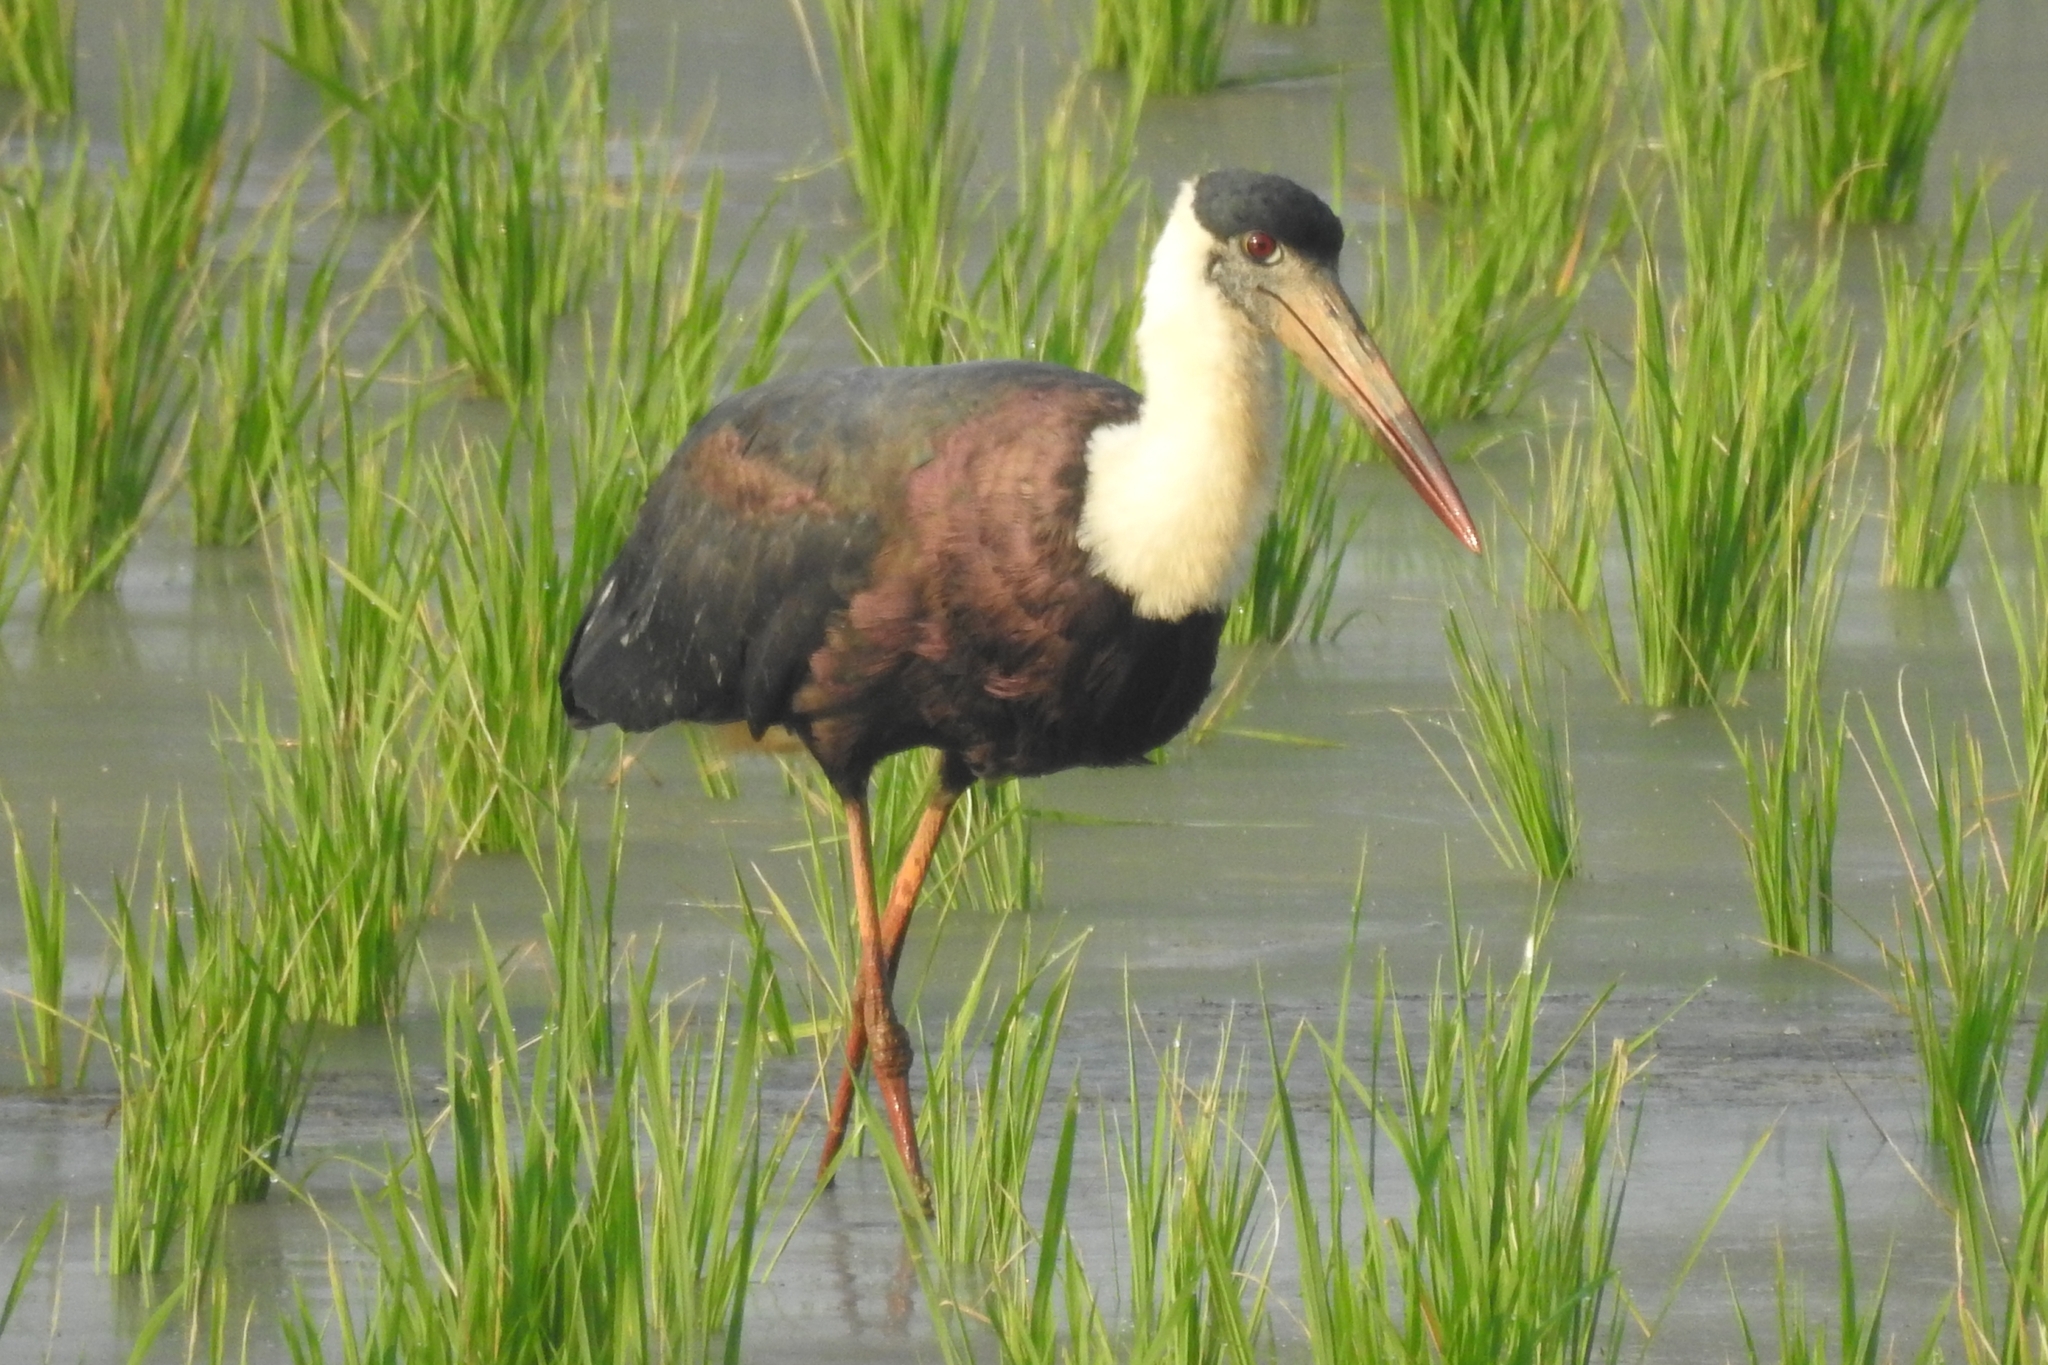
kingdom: Animalia
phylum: Chordata
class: Aves
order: Ciconiiformes
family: Ciconiidae
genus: Ciconia
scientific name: Ciconia episcopus
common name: Woolly-necked stork
